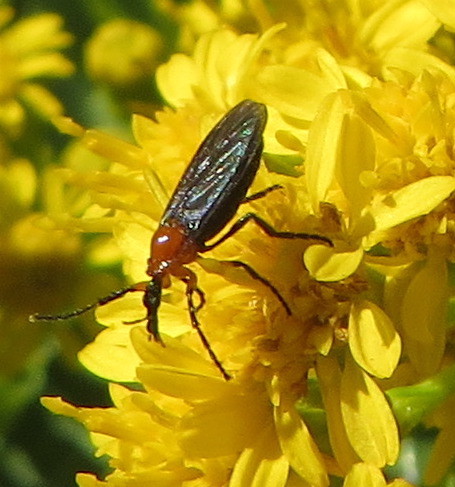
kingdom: Animalia
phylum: Arthropoda
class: Insecta
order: Diptera
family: Bibionidae
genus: Dilophus
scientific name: Dilophus spinipes
